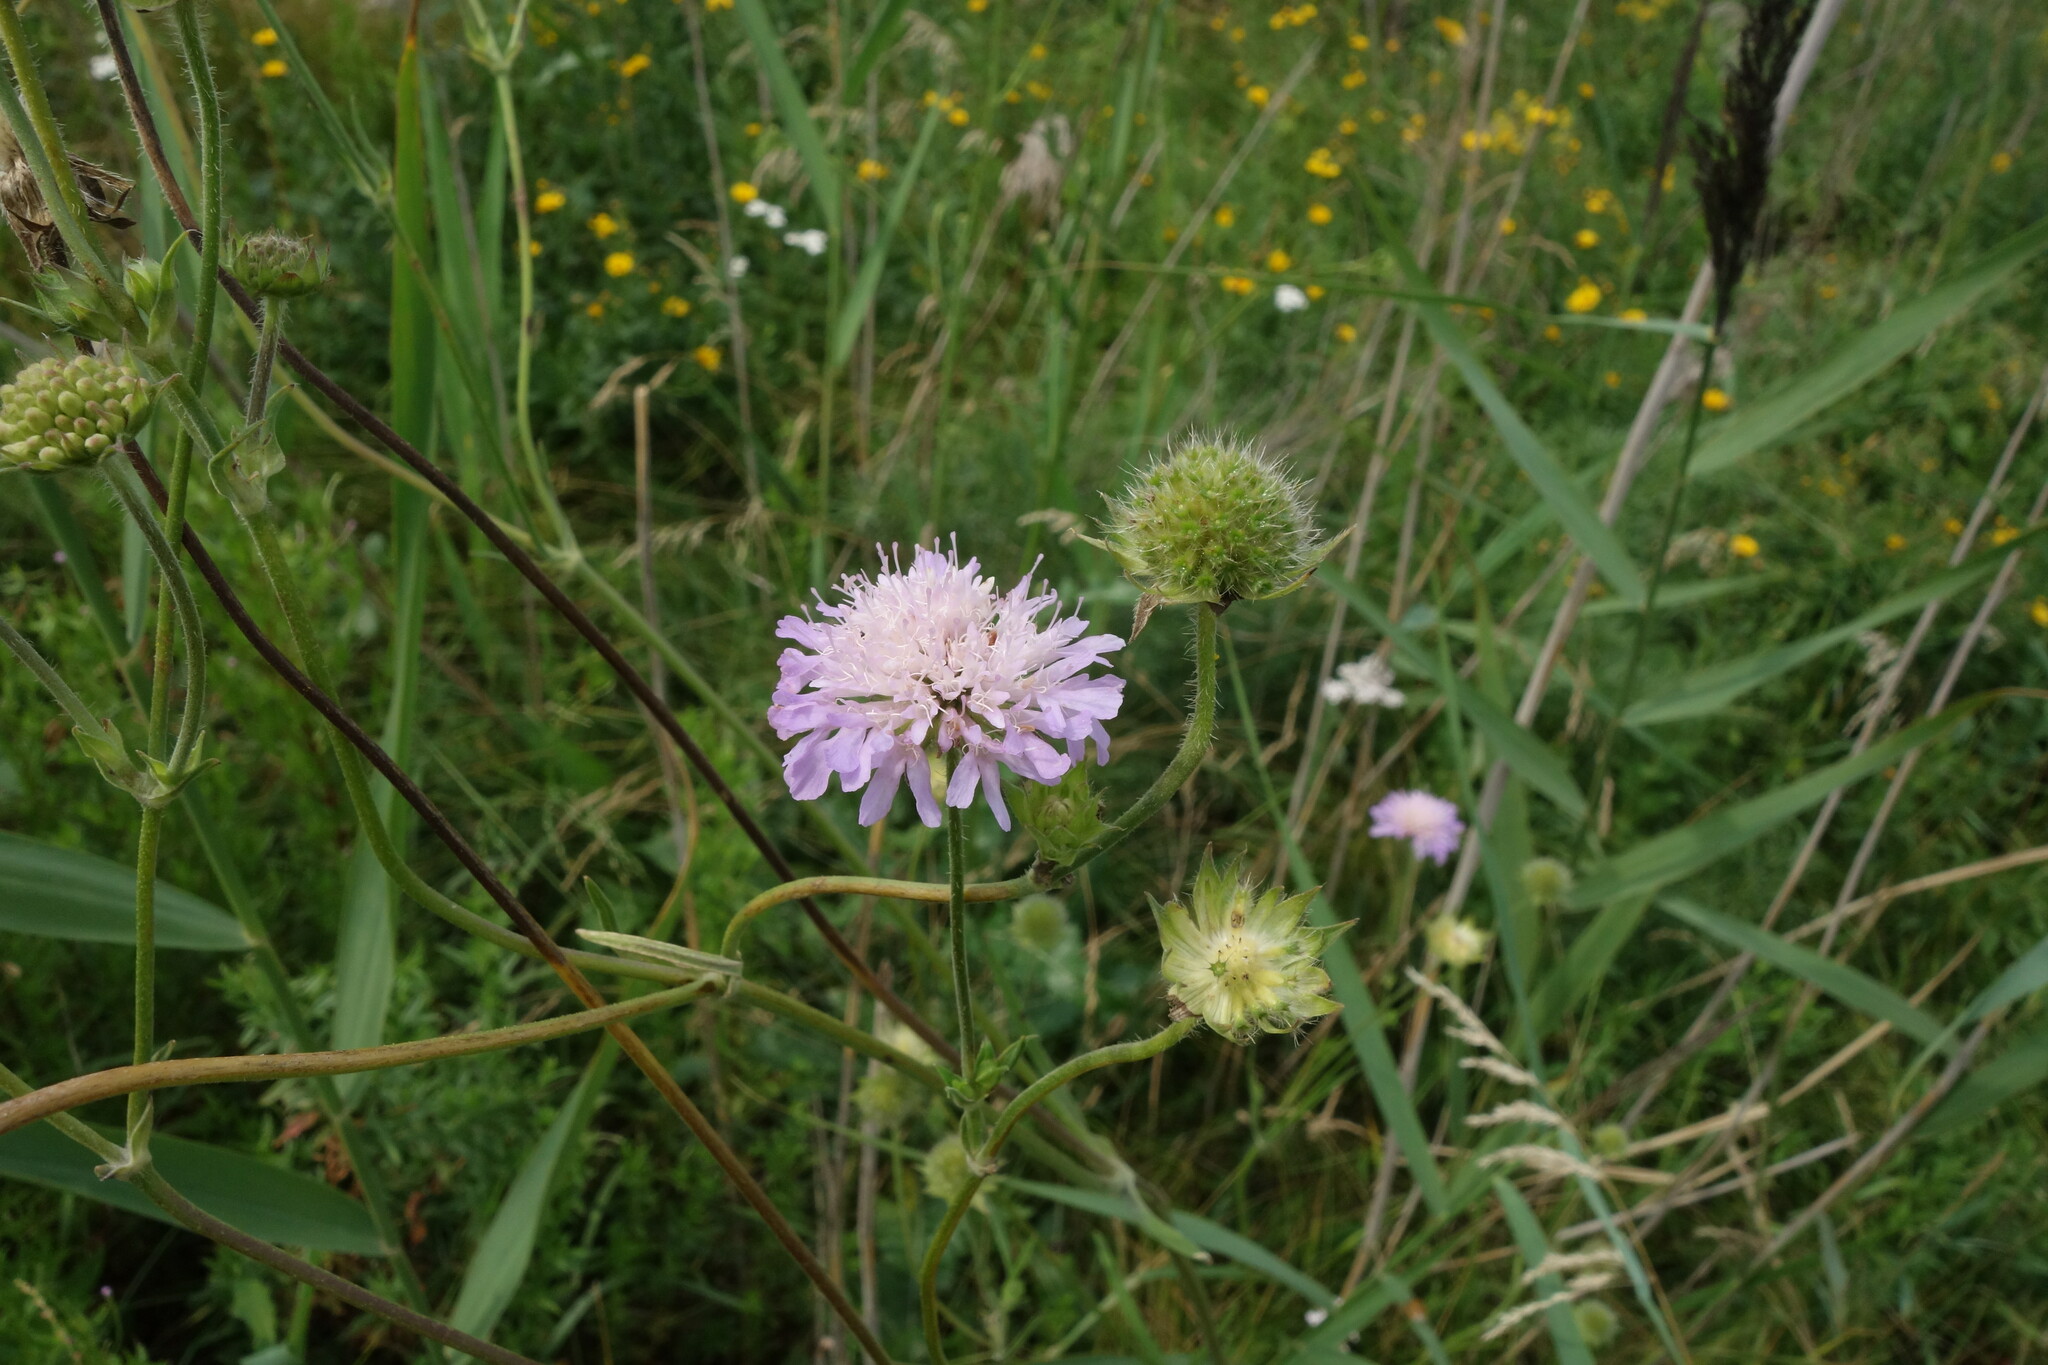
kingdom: Plantae
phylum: Tracheophyta
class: Magnoliopsida
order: Dipsacales
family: Caprifoliaceae
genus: Knautia
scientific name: Knautia arvensis
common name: Field scabiosa
